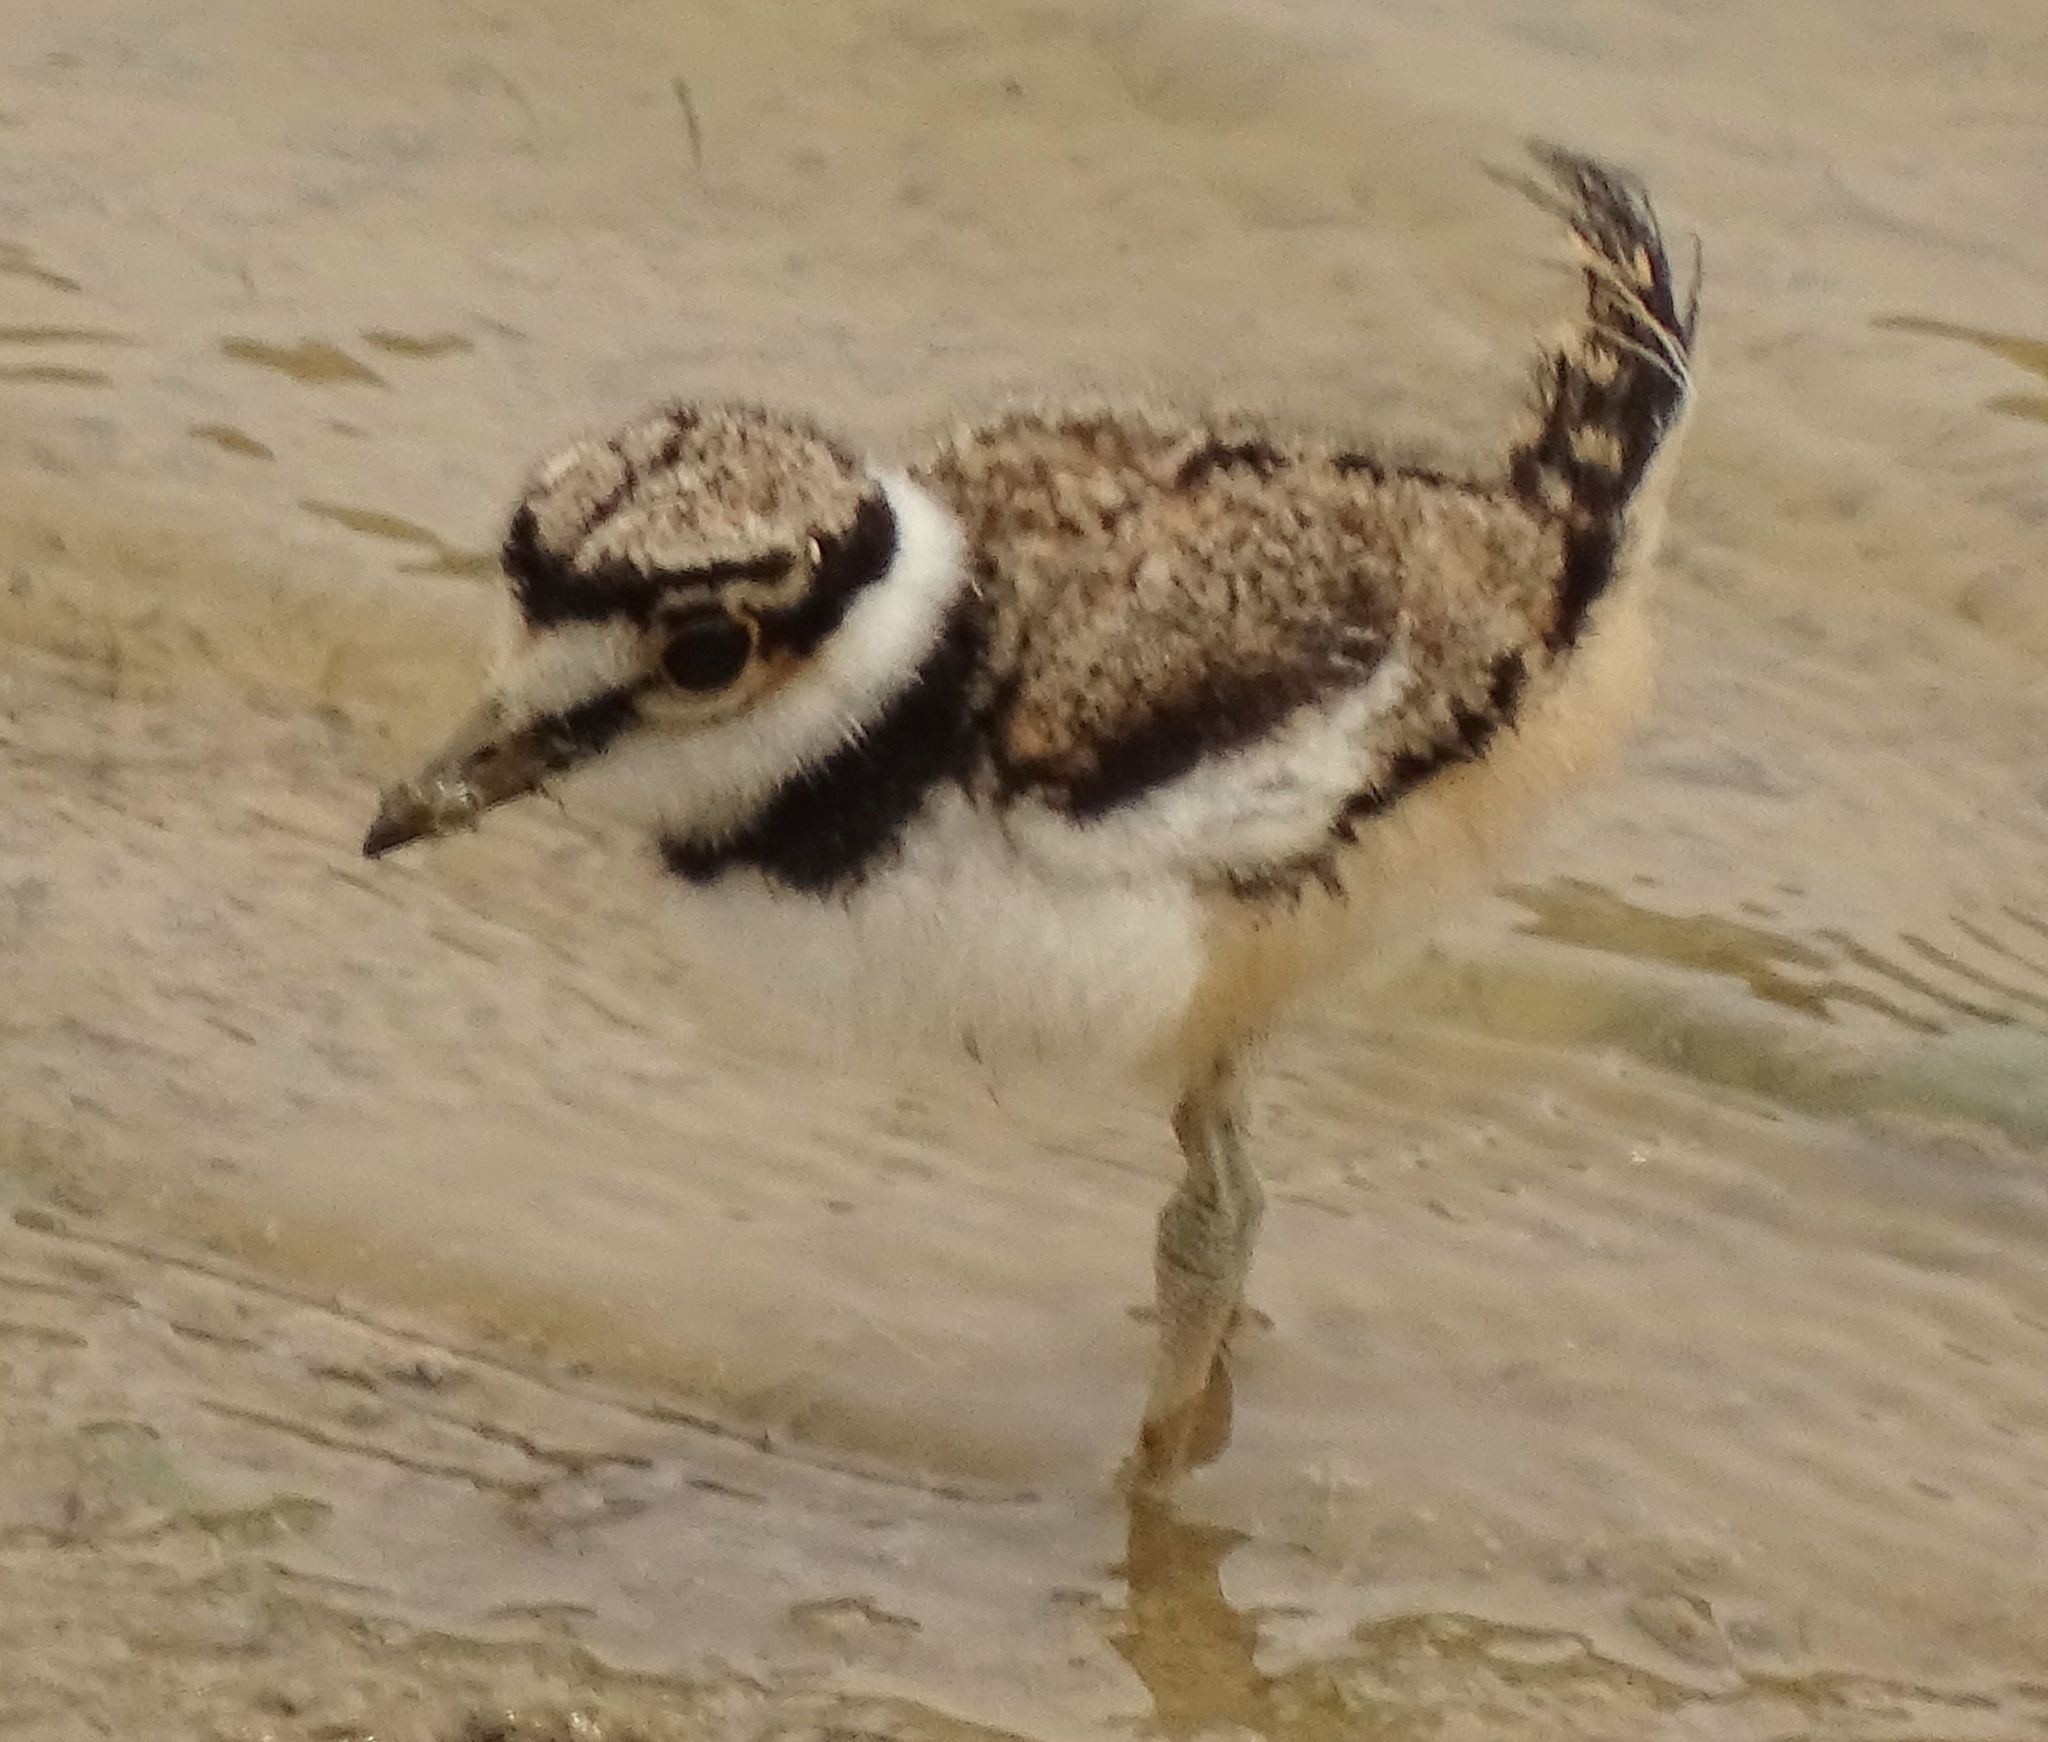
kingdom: Animalia
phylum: Chordata
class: Aves
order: Charadriiformes
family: Charadriidae
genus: Charadrius
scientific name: Charadrius vociferus
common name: Killdeer
